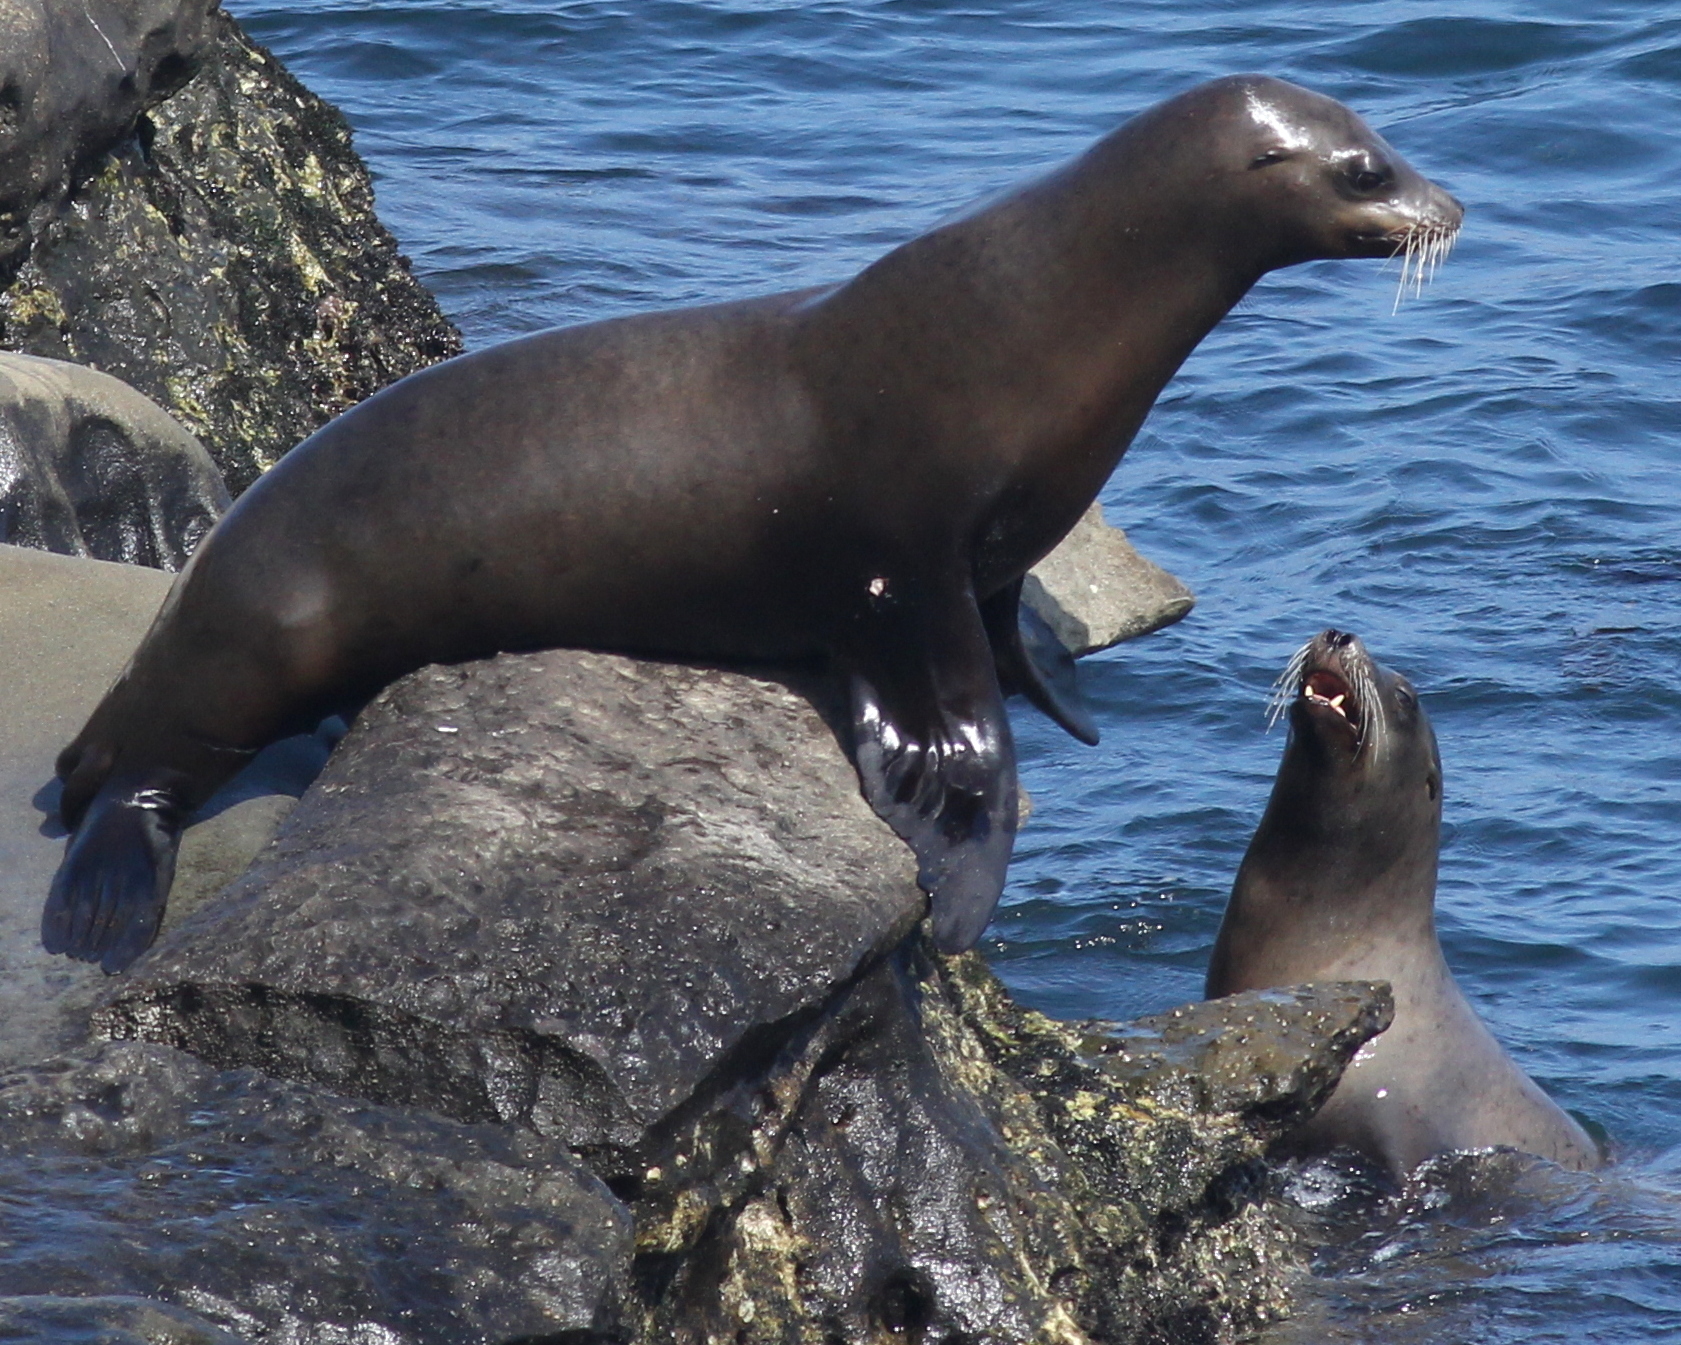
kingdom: Animalia
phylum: Chordata
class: Mammalia
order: Carnivora
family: Otariidae
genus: Zalophus
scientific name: Zalophus californianus
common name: California sea lion
